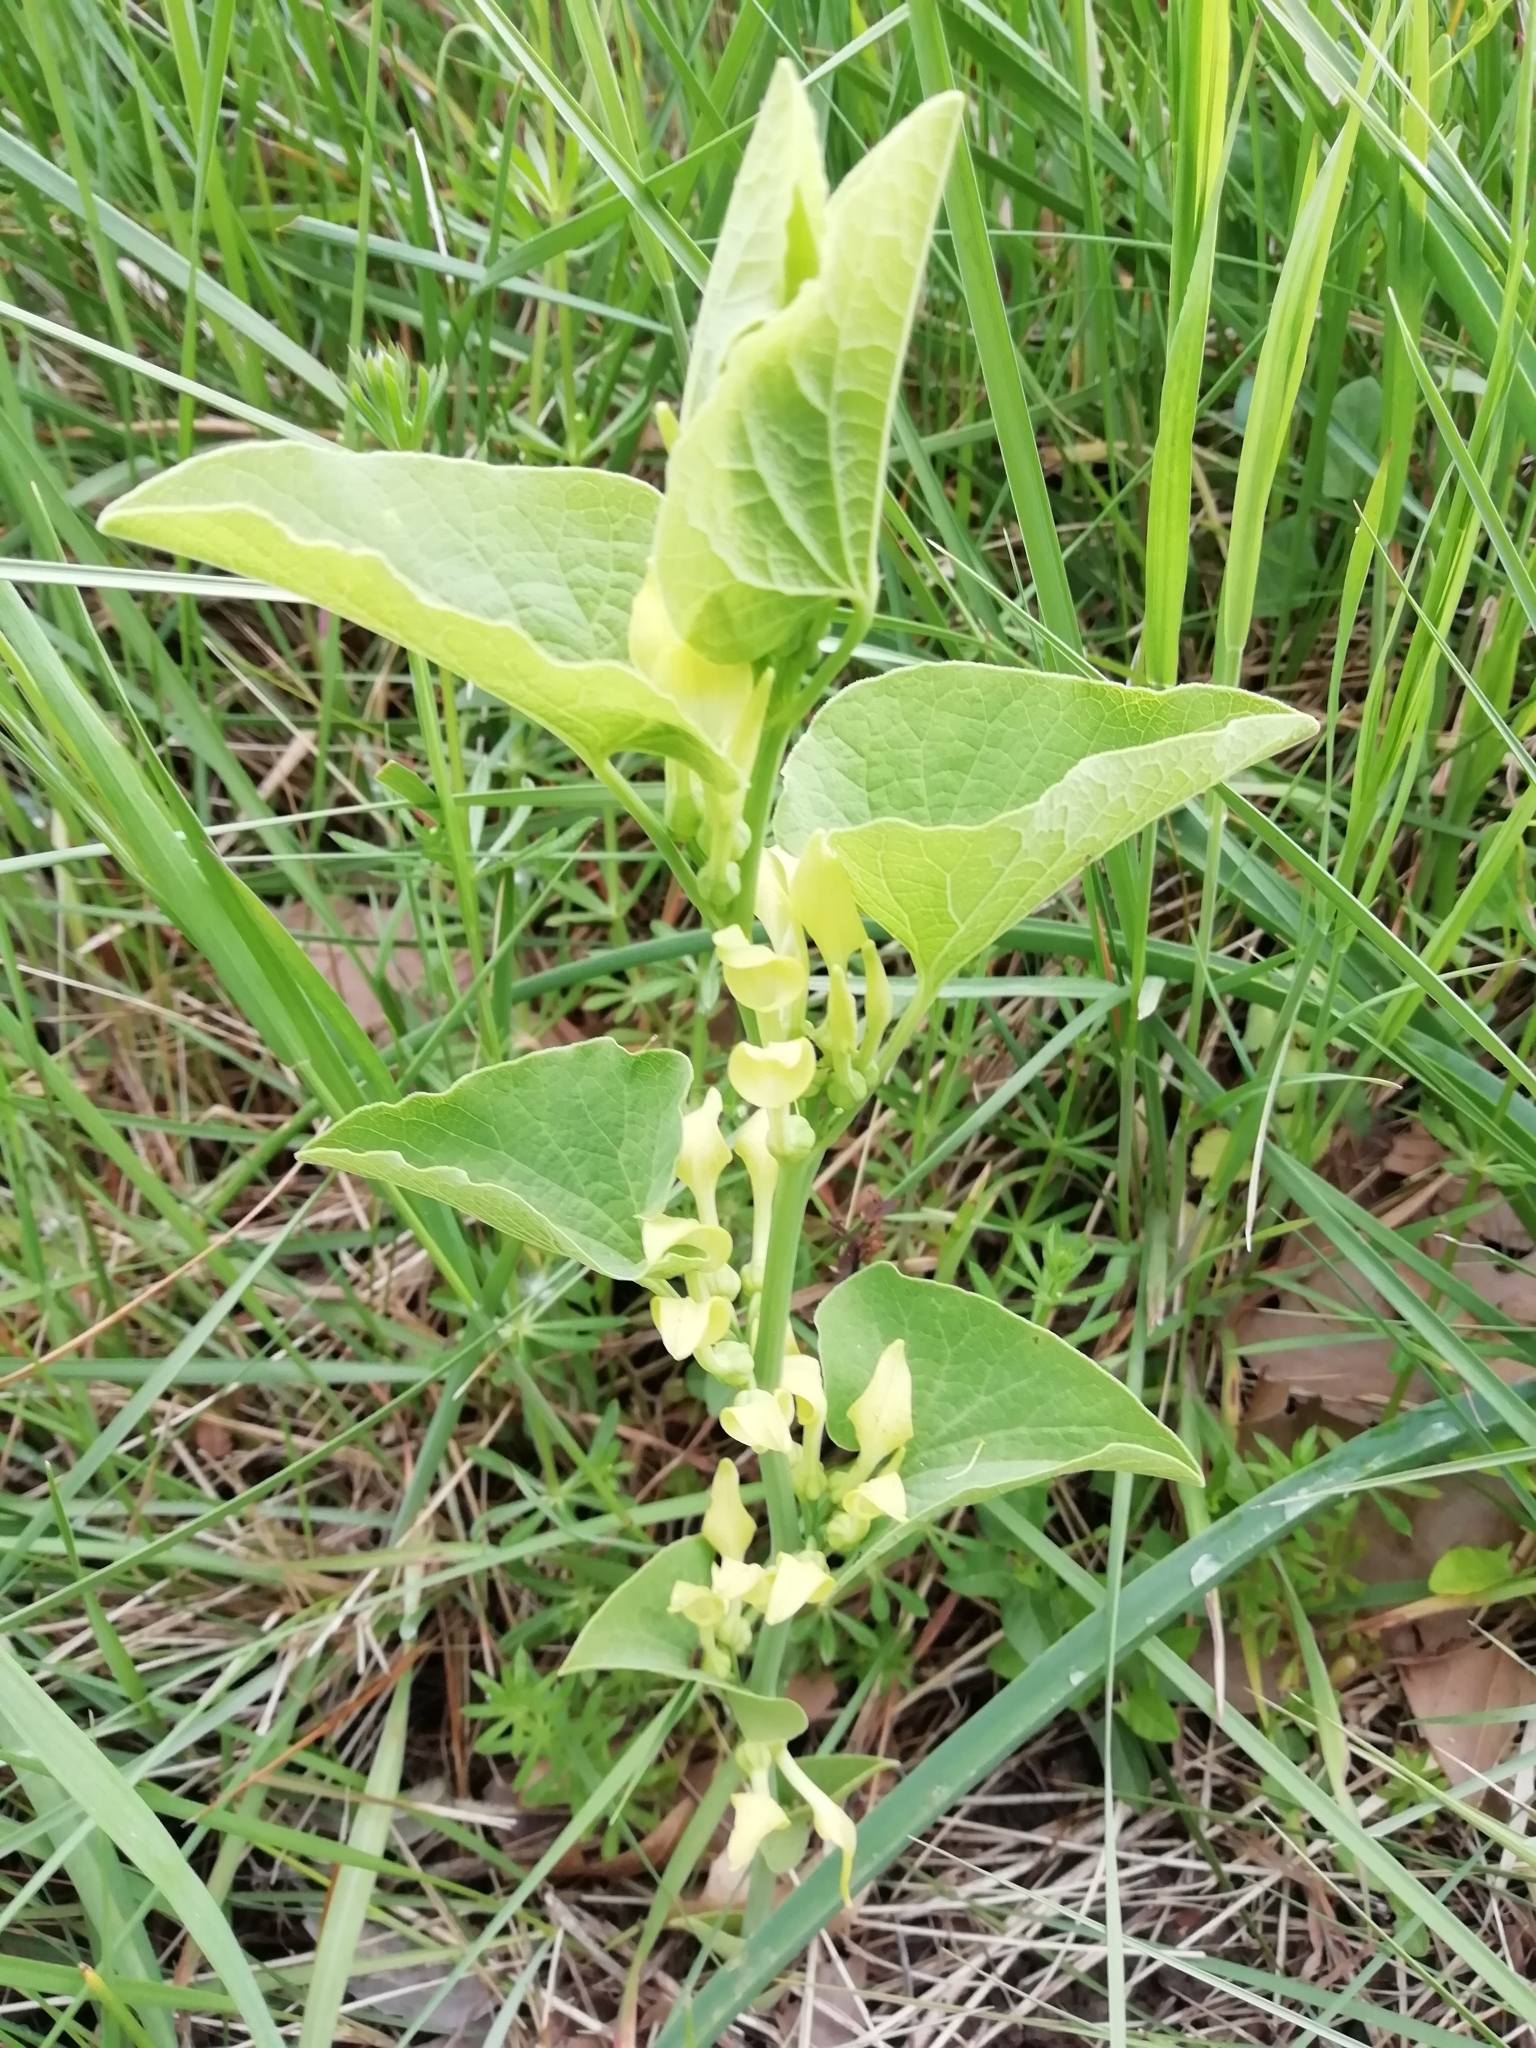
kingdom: Plantae
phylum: Tracheophyta
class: Magnoliopsida
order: Piperales
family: Aristolochiaceae
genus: Aristolochia
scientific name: Aristolochia clematitis
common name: Birthwort
